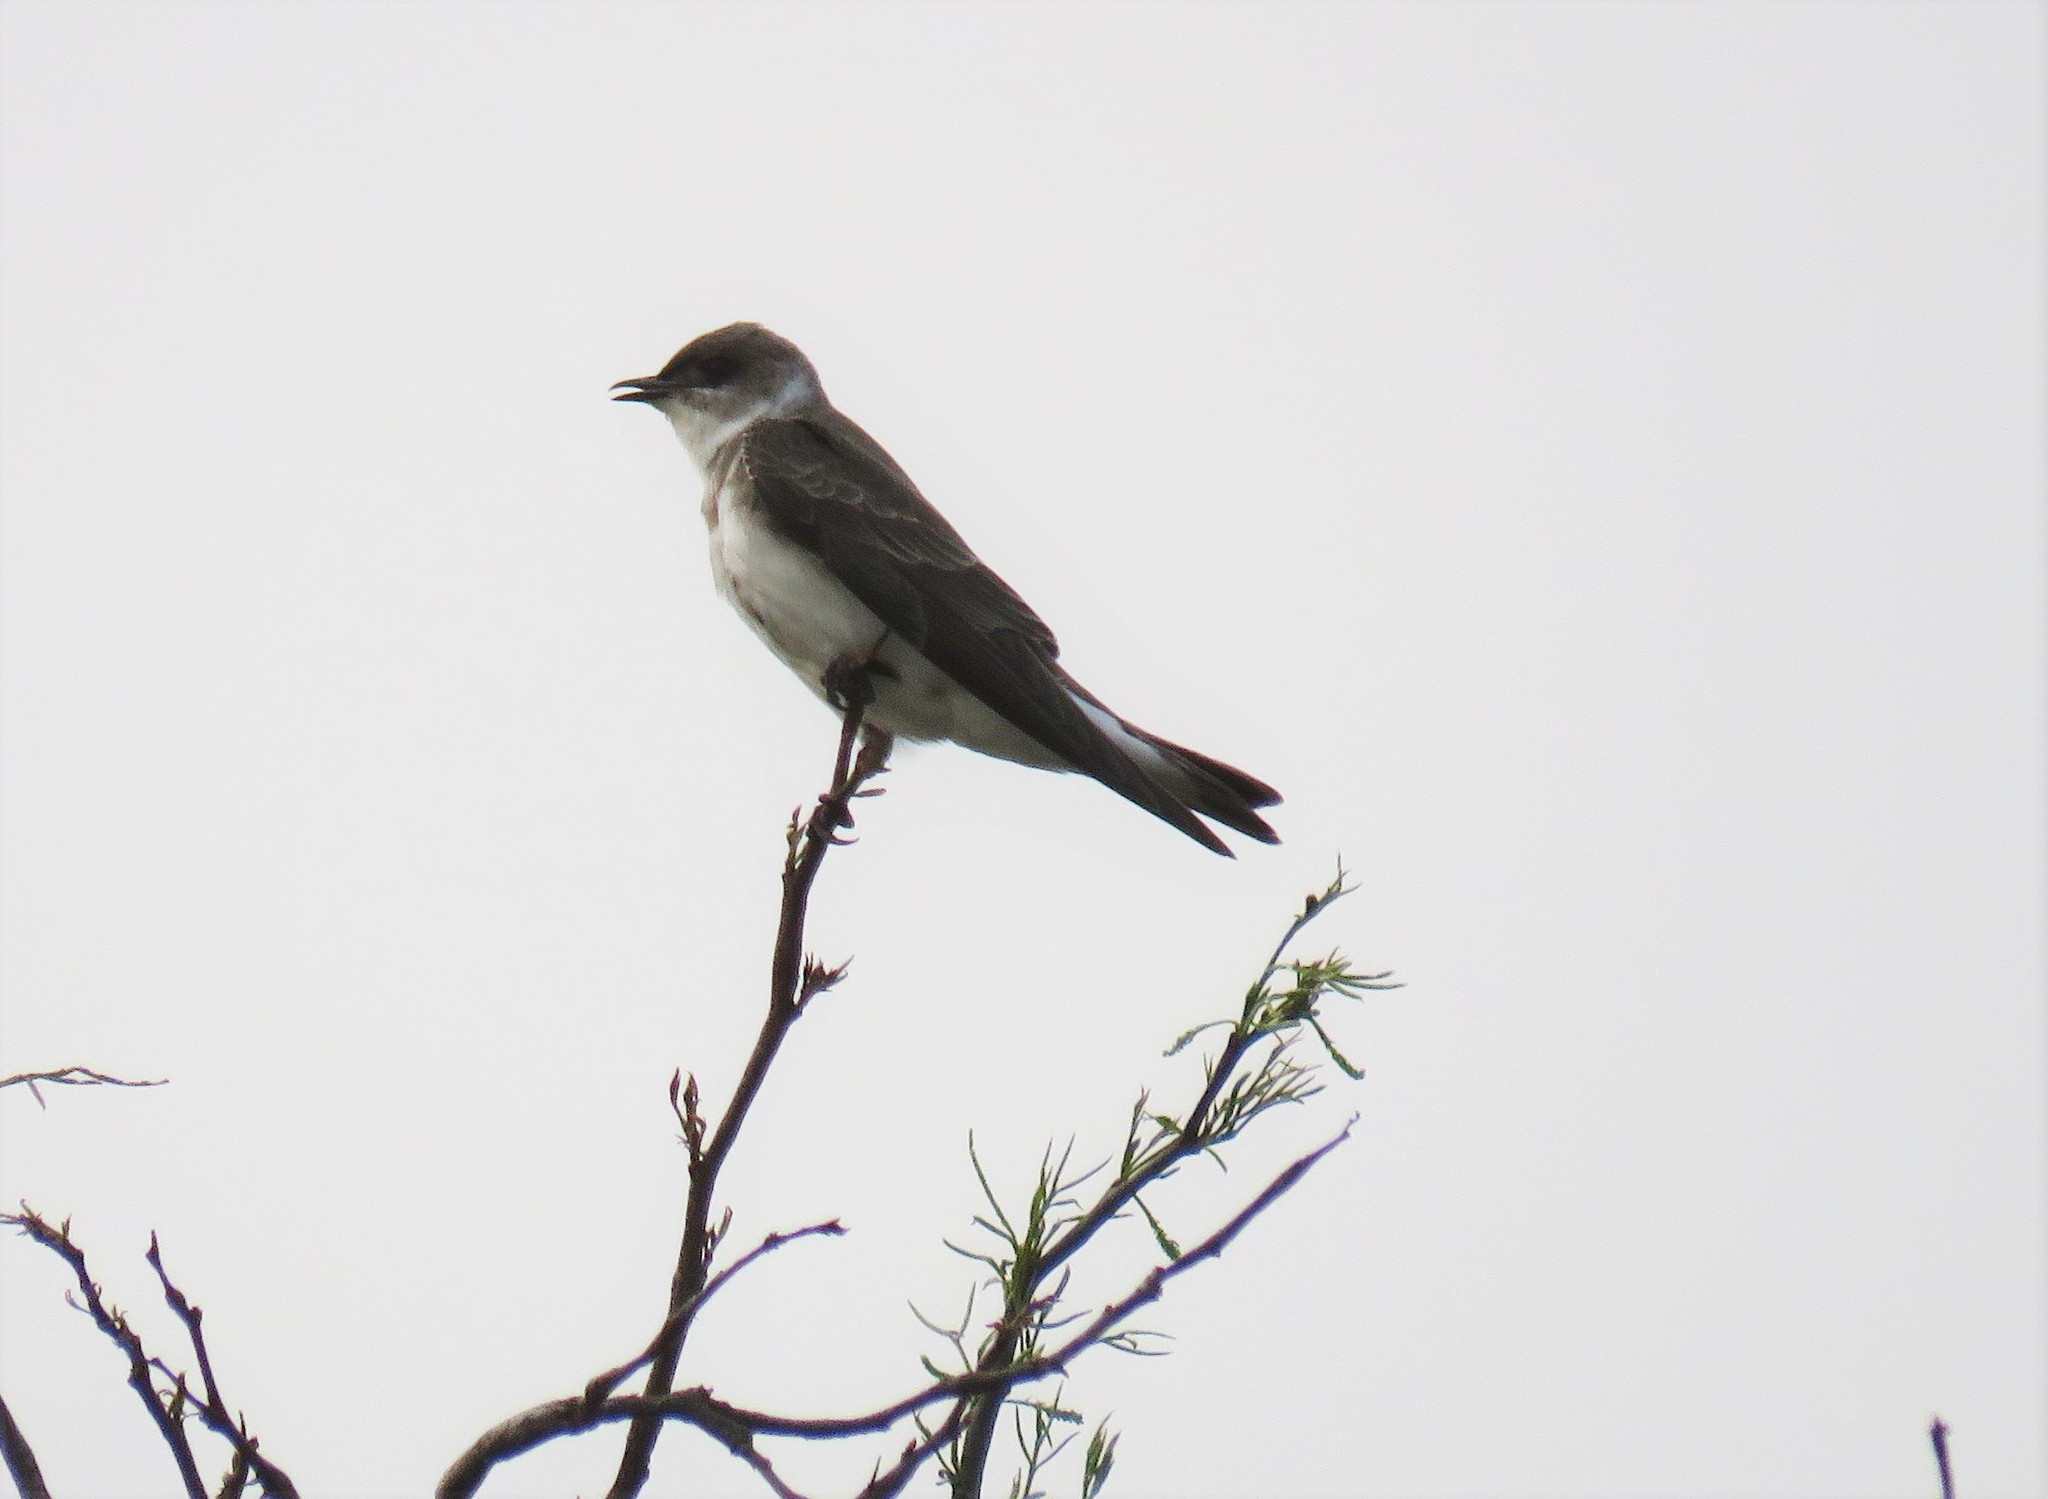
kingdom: Animalia
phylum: Chordata
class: Aves
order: Passeriformes
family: Hirundinidae
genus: Progne
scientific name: Progne tapera
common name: Brown-chested martin
